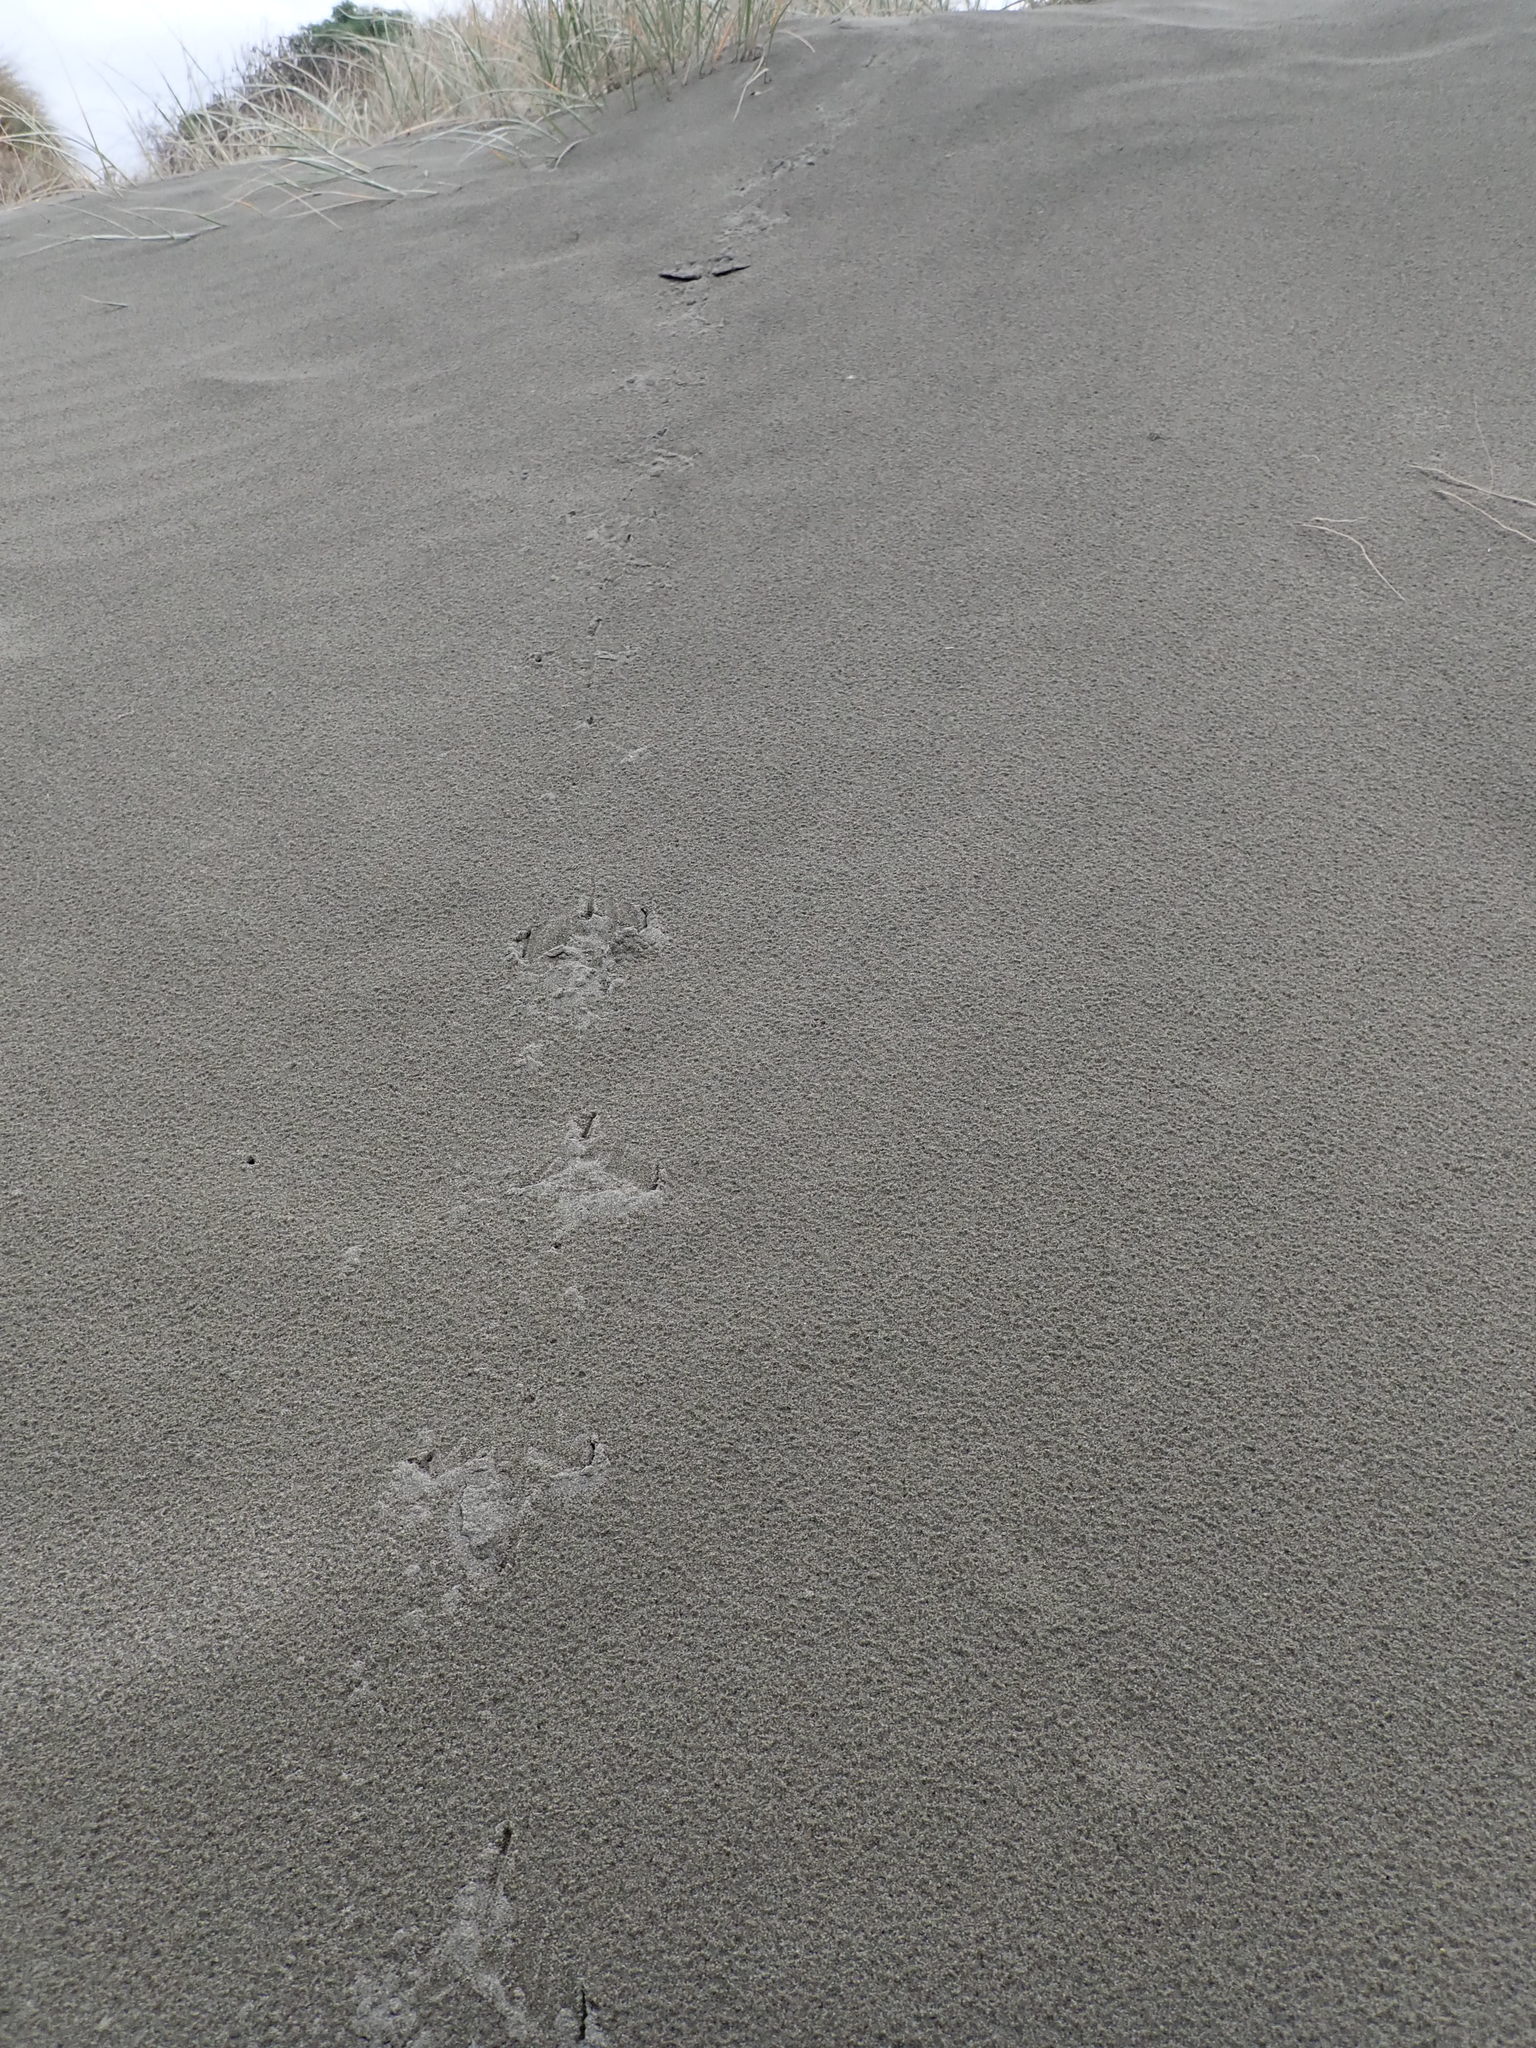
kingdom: Animalia
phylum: Chordata
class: Aves
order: Galliformes
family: Phasianidae
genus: Phasianus
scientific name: Phasianus colchicus
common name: Common pheasant
